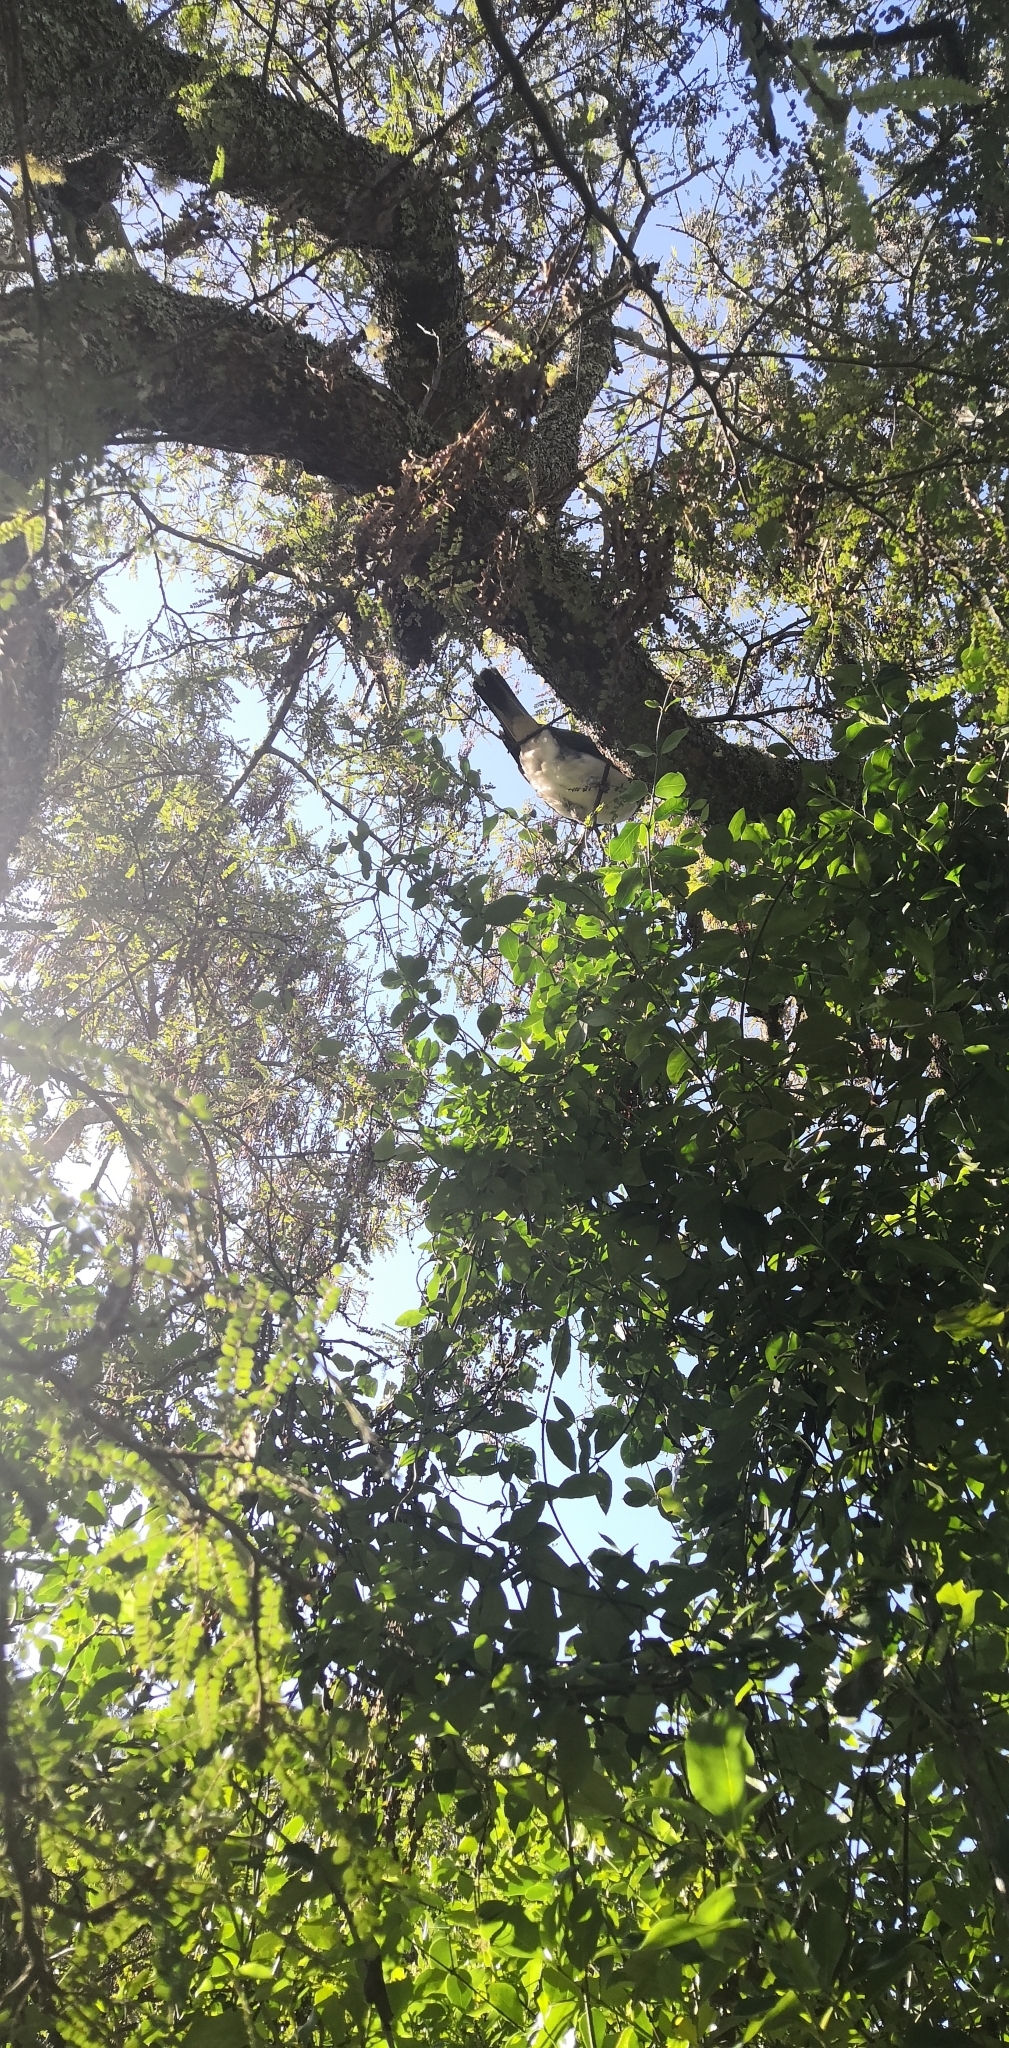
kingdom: Animalia
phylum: Chordata
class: Aves
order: Columbiformes
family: Columbidae
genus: Hemiphaga
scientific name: Hemiphaga novaeseelandiae
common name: New zealand pigeon
